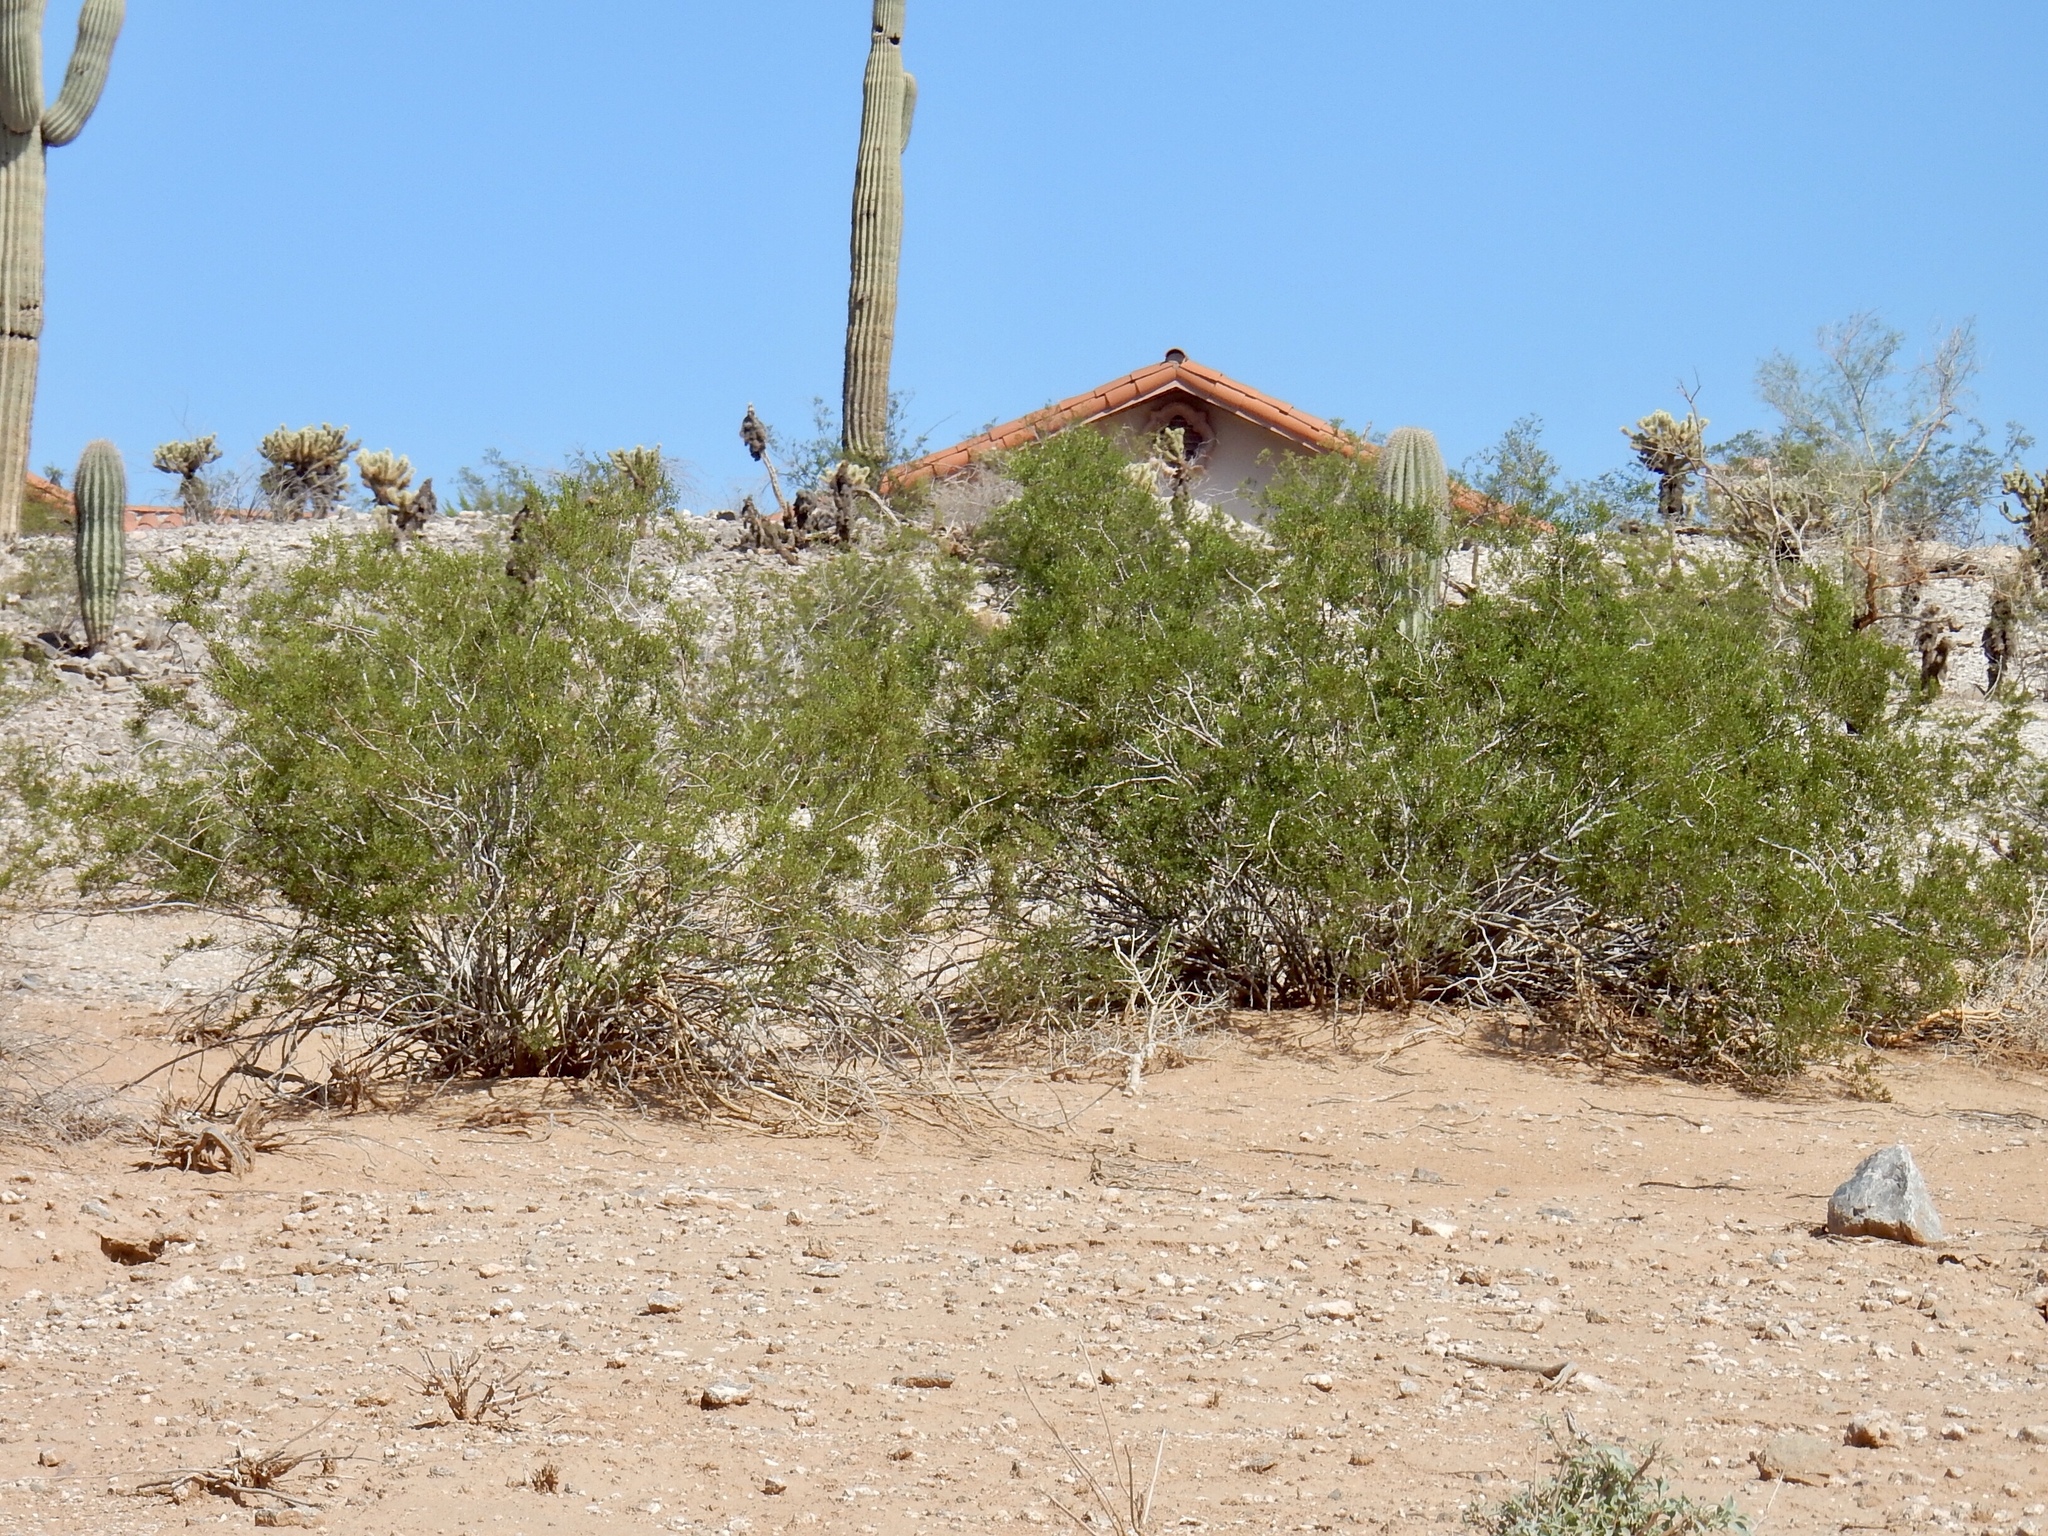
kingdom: Plantae
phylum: Tracheophyta
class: Magnoliopsida
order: Zygophyllales
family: Zygophyllaceae
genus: Larrea
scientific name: Larrea tridentata
